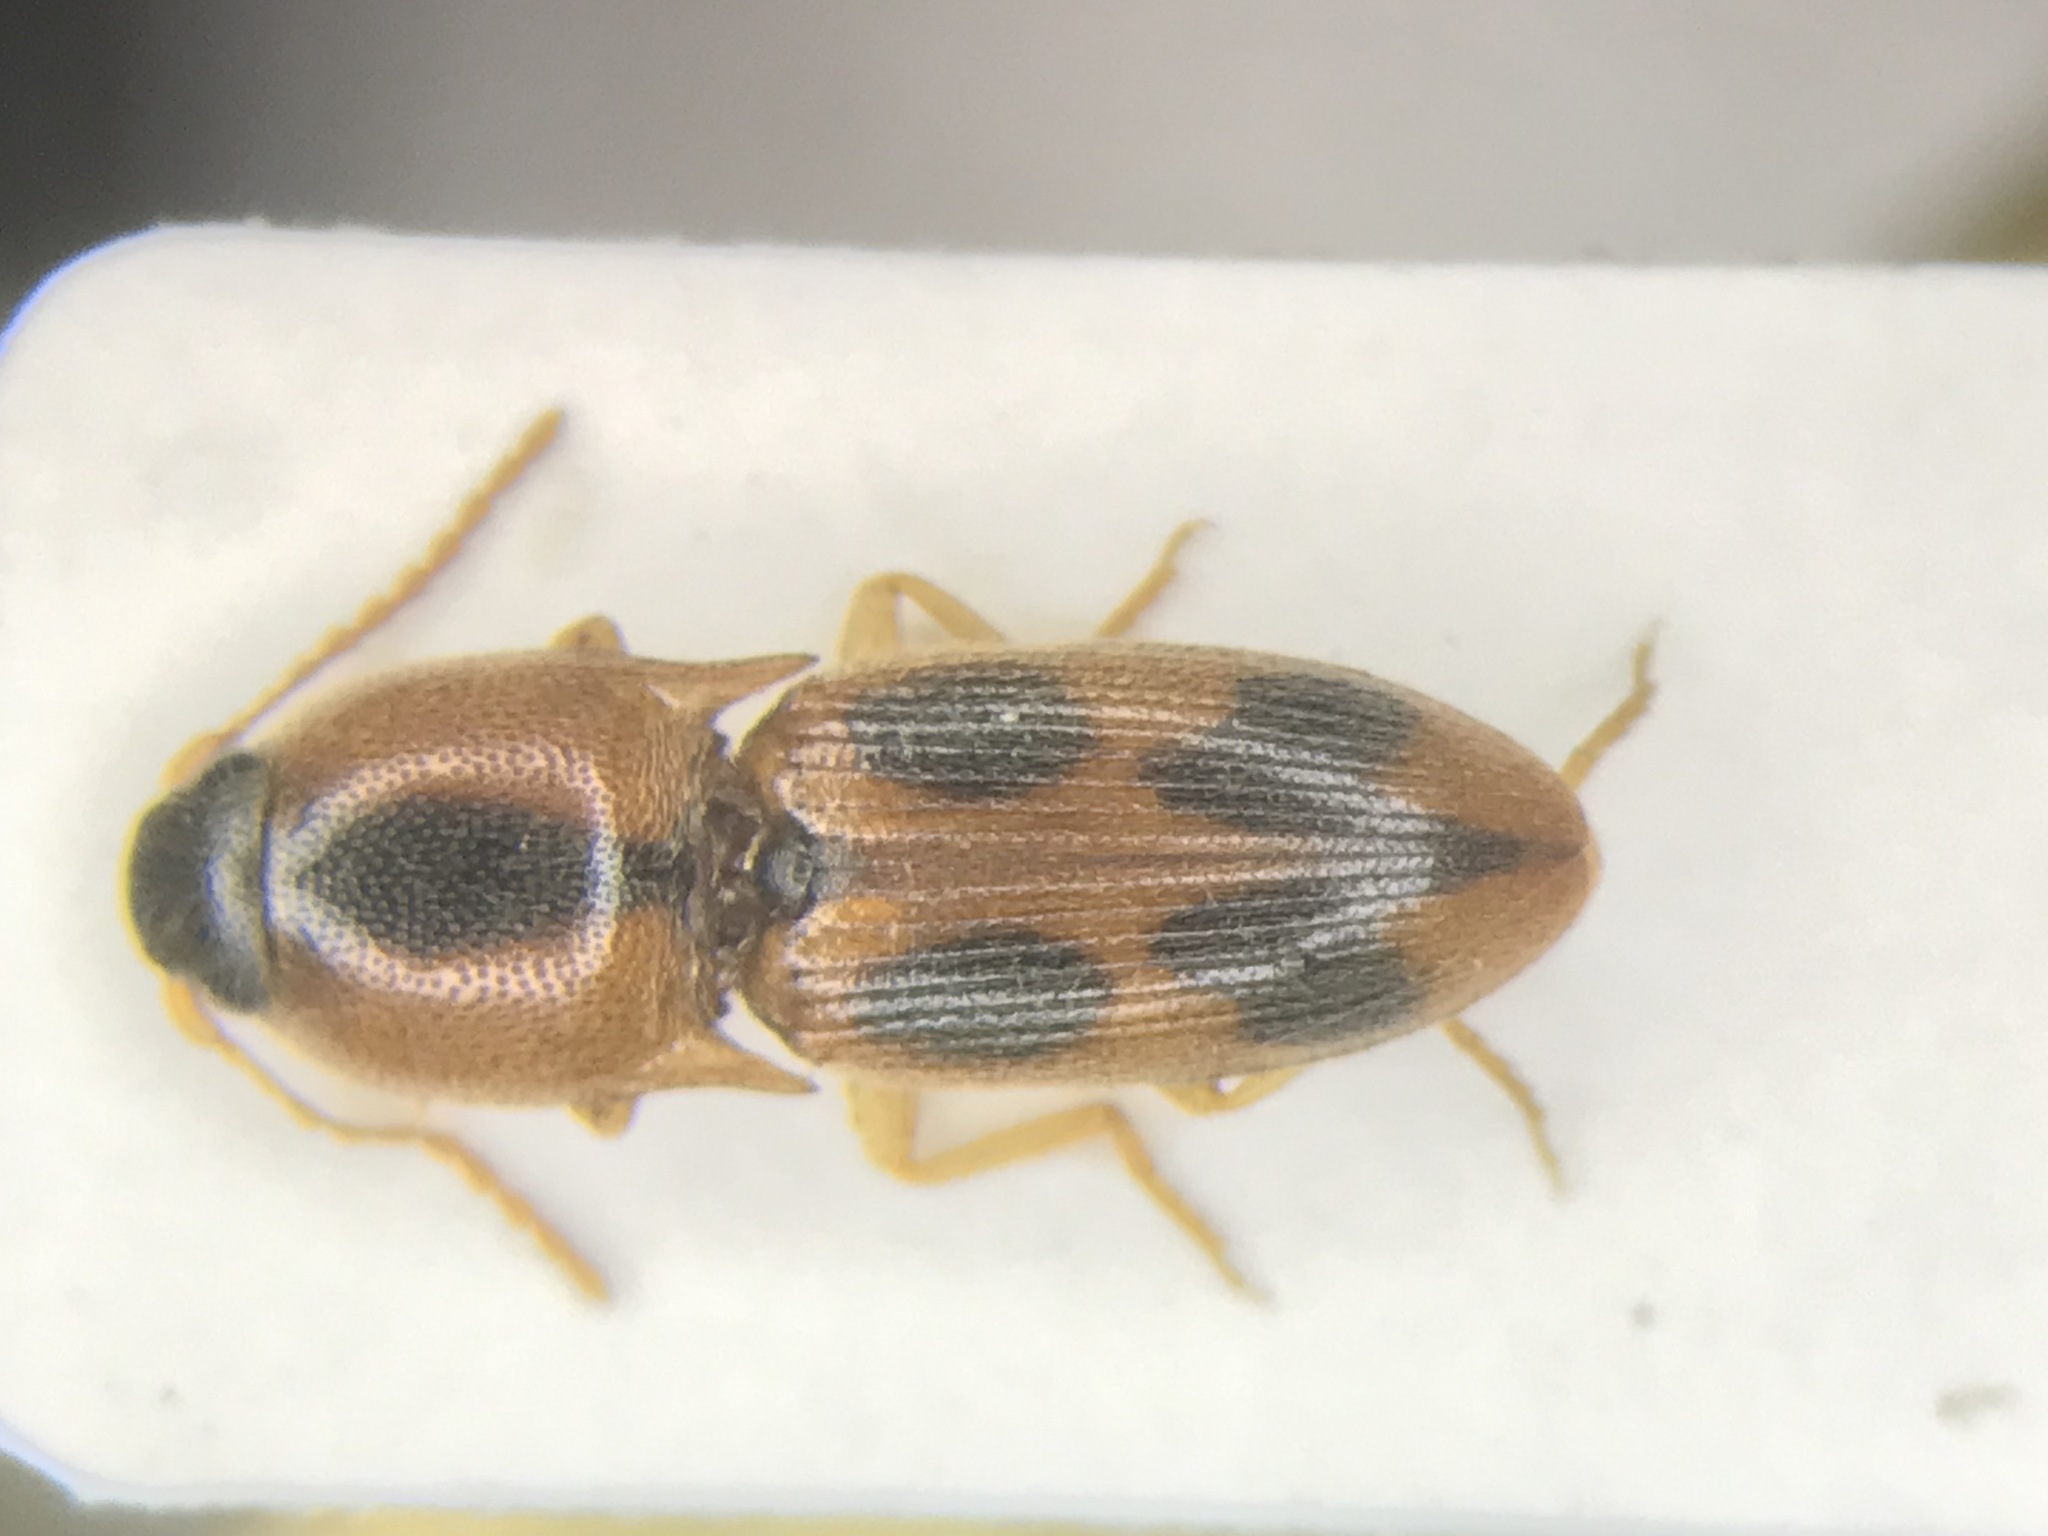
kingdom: Animalia
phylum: Arthropoda
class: Insecta
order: Coleoptera
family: Elateridae
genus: Aeolus
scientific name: Aeolus mellillus
